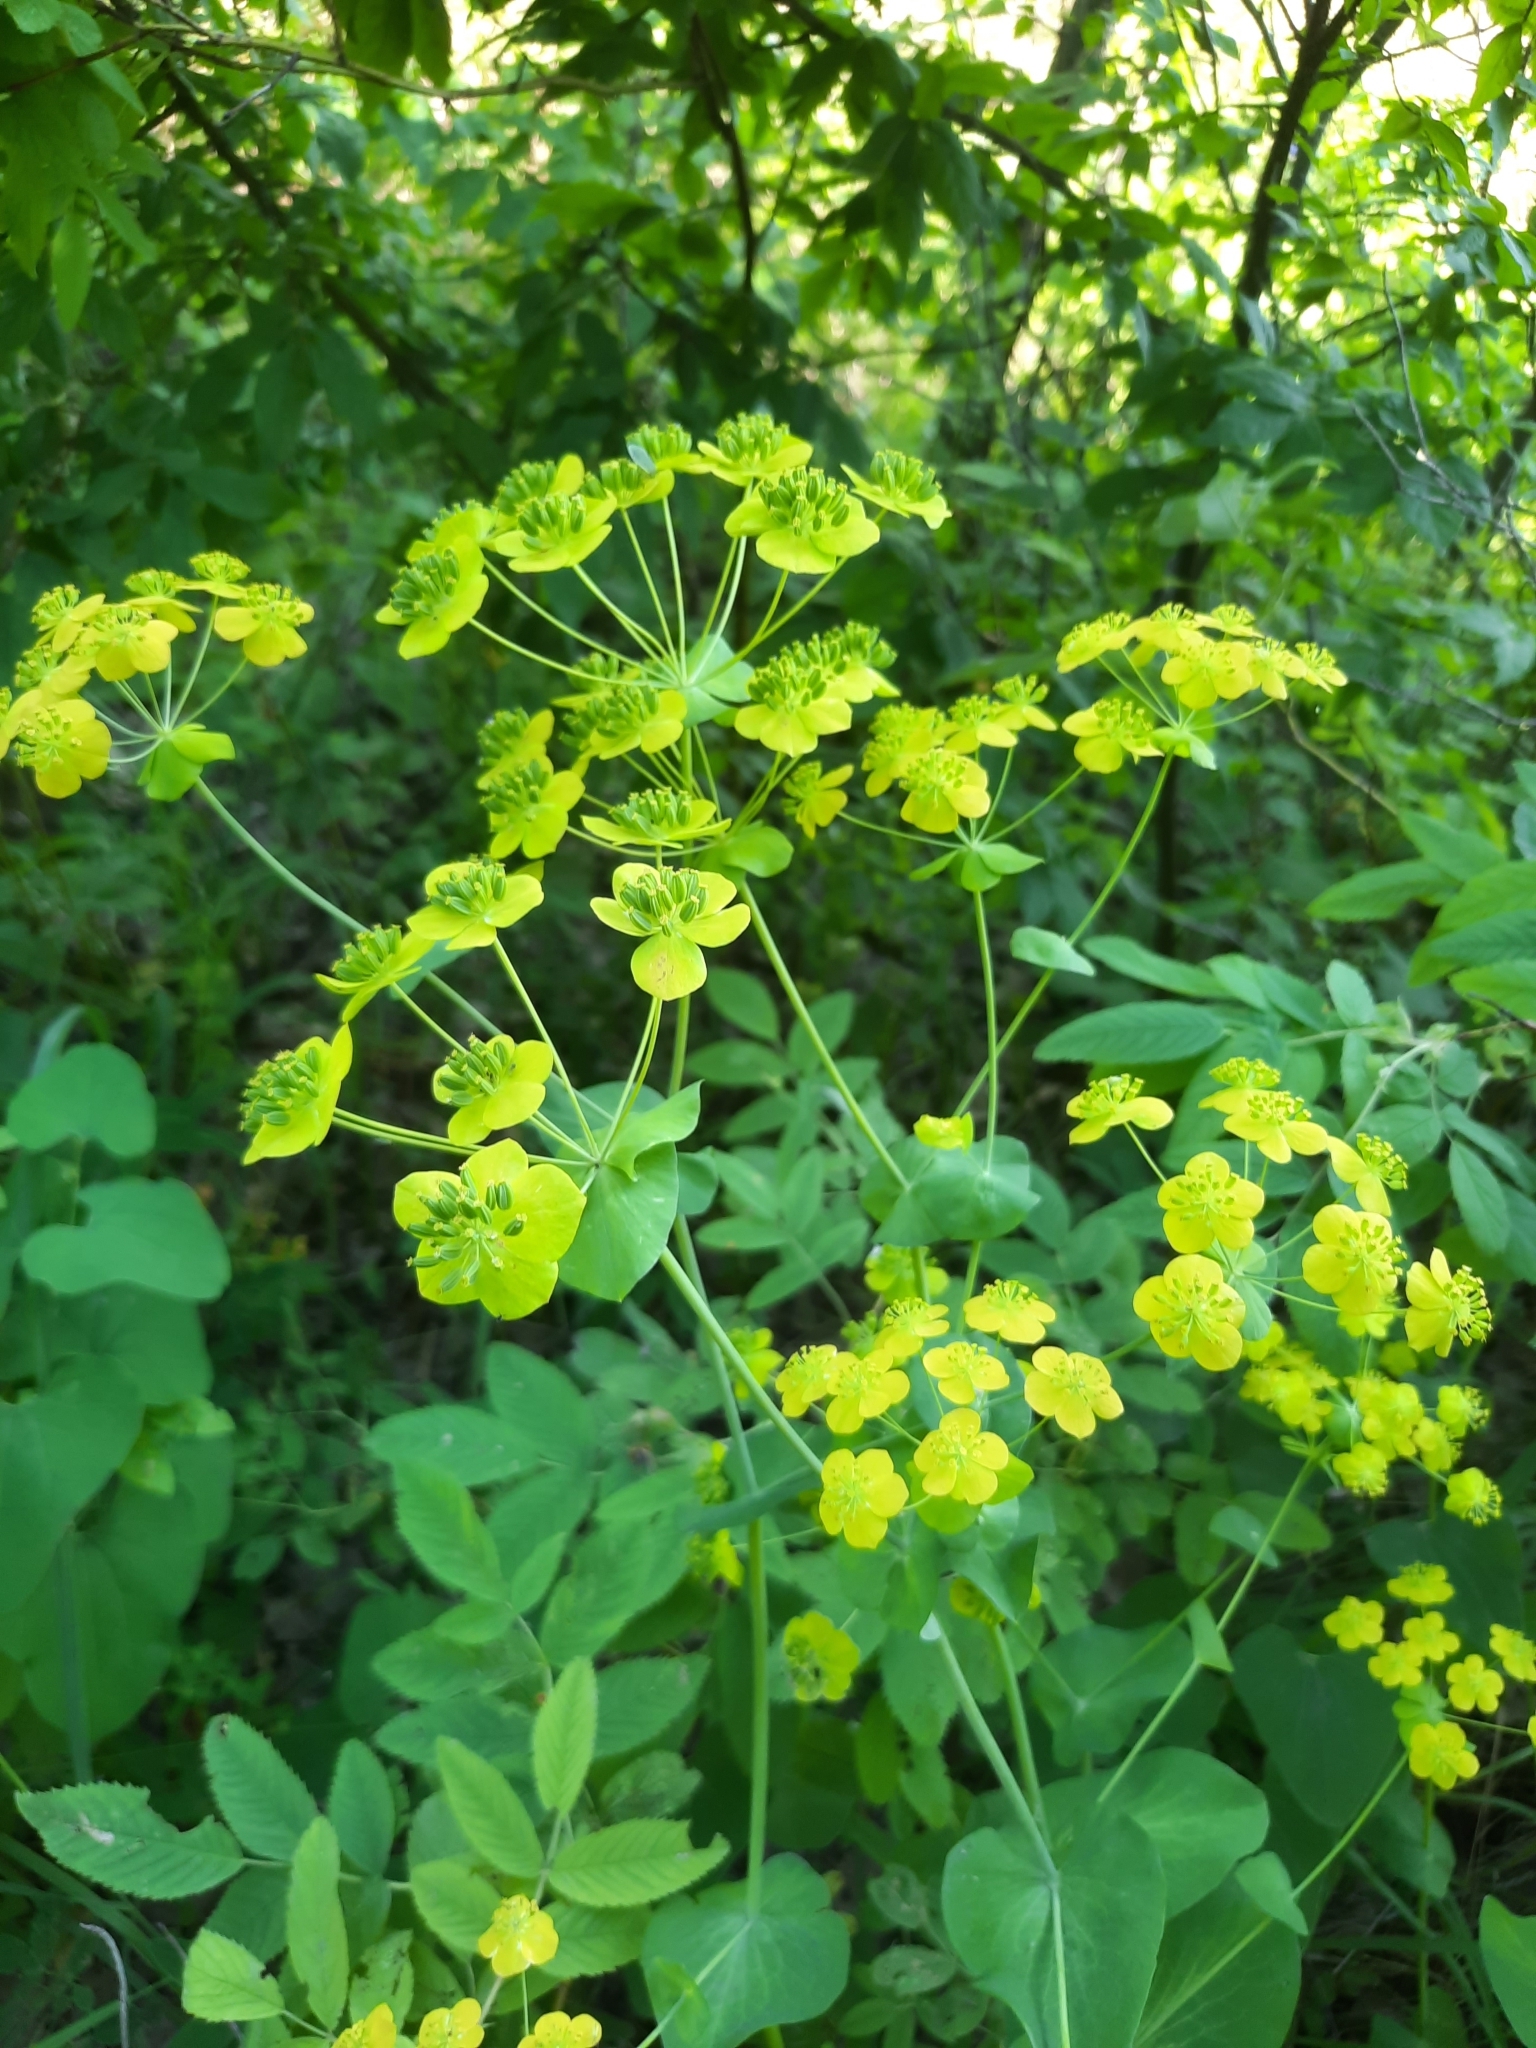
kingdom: Plantae
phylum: Tracheophyta
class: Magnoliopsida
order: Apiales
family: Apiaceae
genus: Bupleurum
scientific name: Bupleurum aureum
